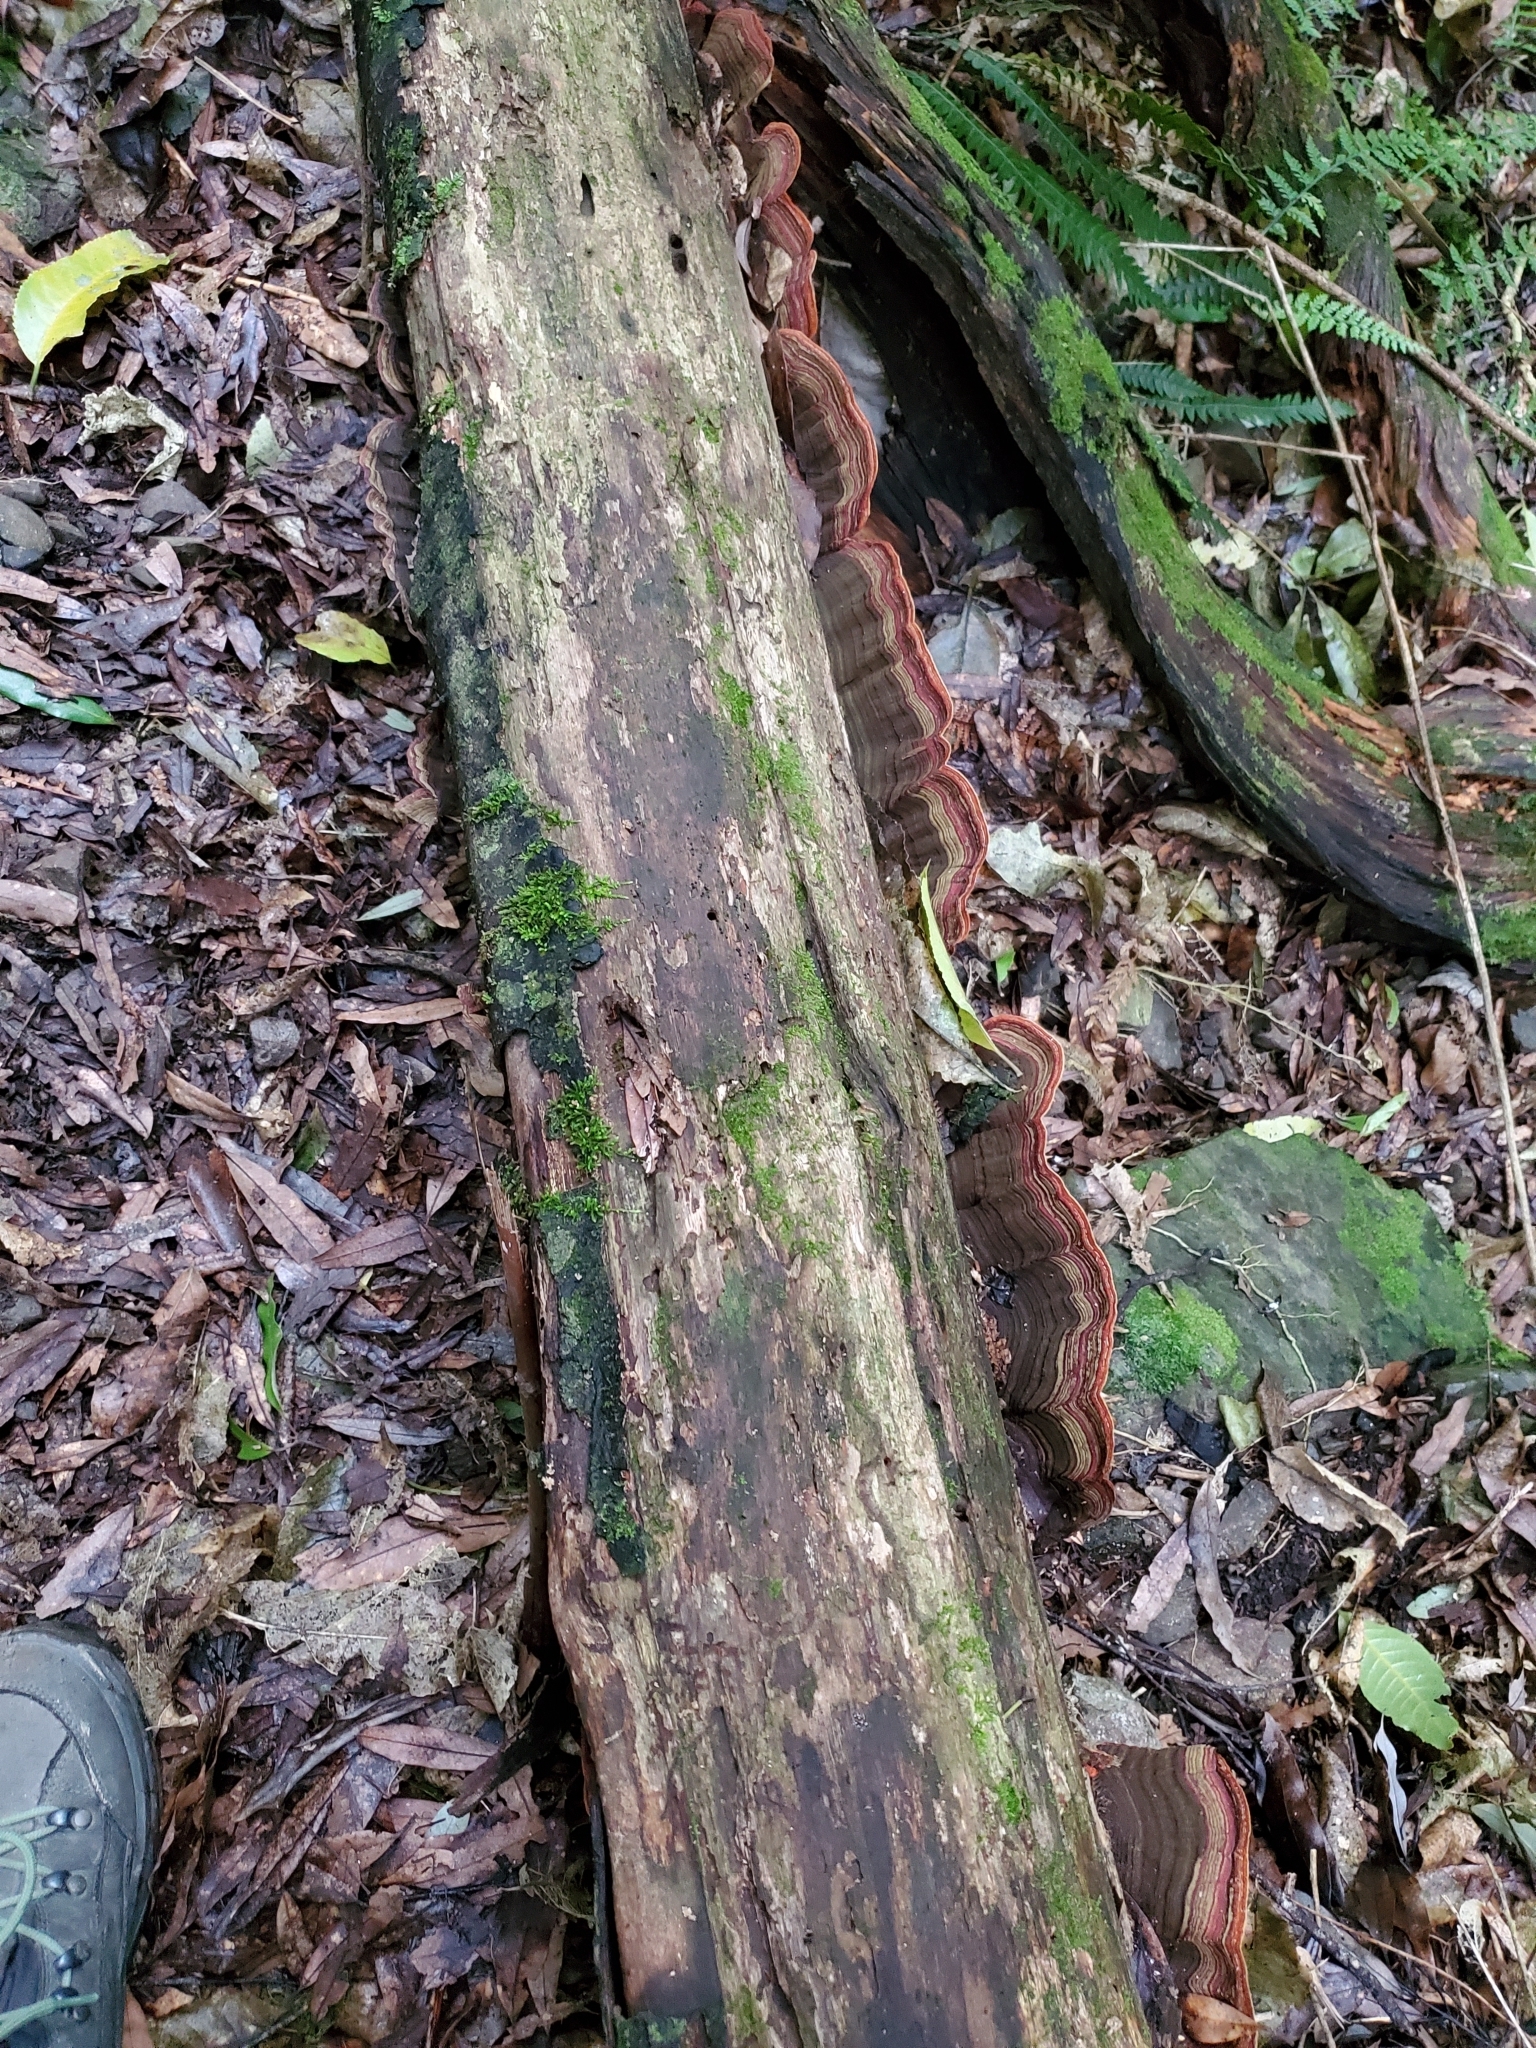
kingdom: Fungi
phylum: Basidiomycota
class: Agaricomycetes
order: Russulales
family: Stereaceae
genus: Stereum
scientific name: Stereum versicolor
